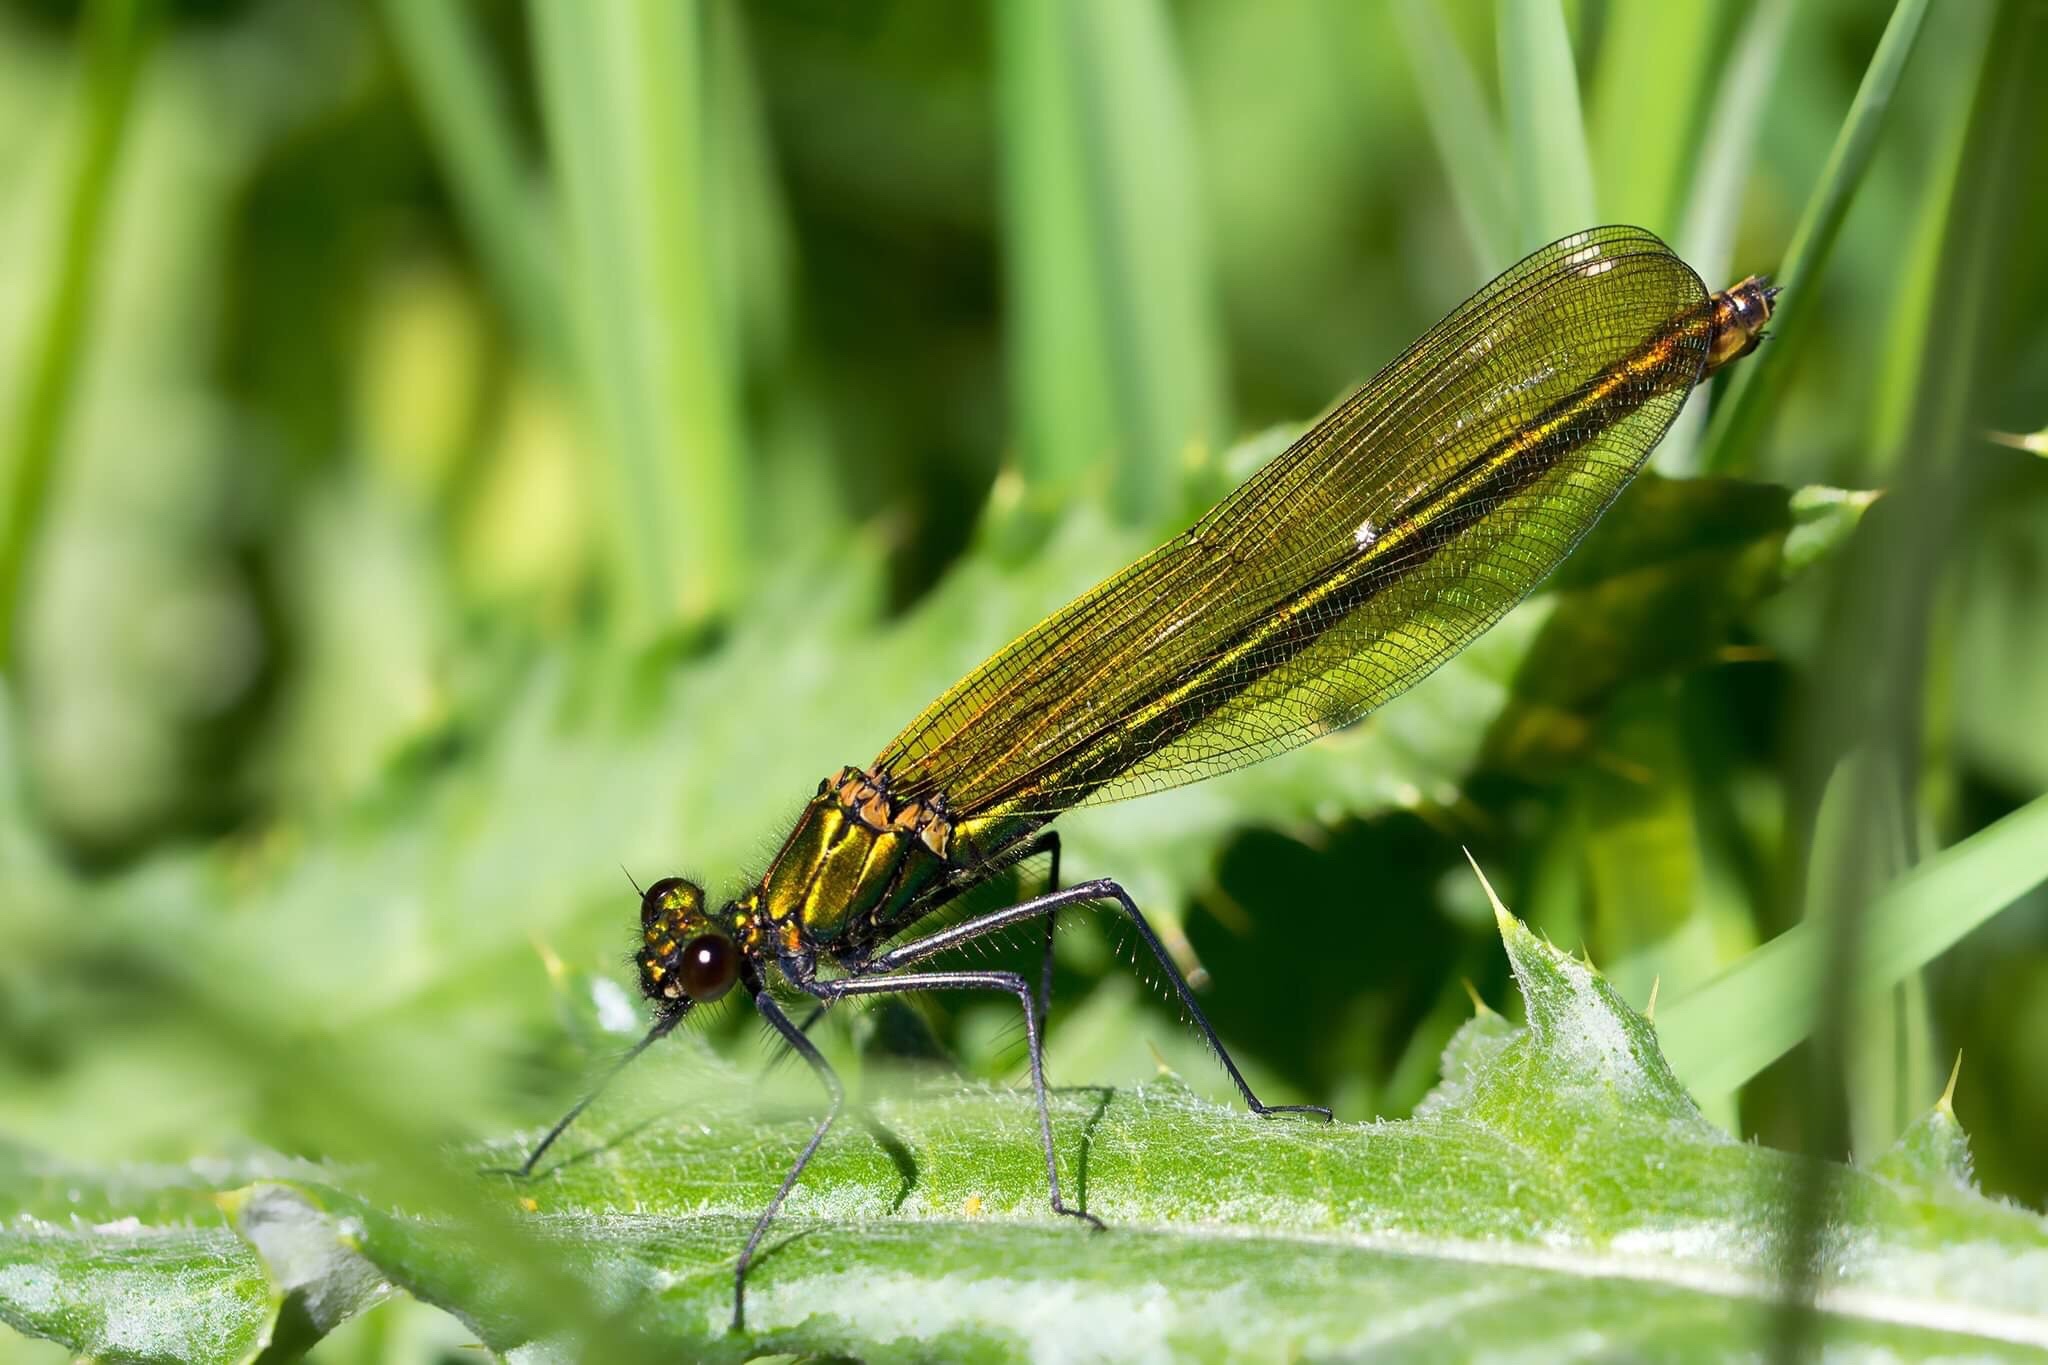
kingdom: Animalia
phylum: Arthropoda
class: Insecta
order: Odonata
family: Calopterygidae
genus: Calopteryx
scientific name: Calopteryx splendens
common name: Banded demoiselle
